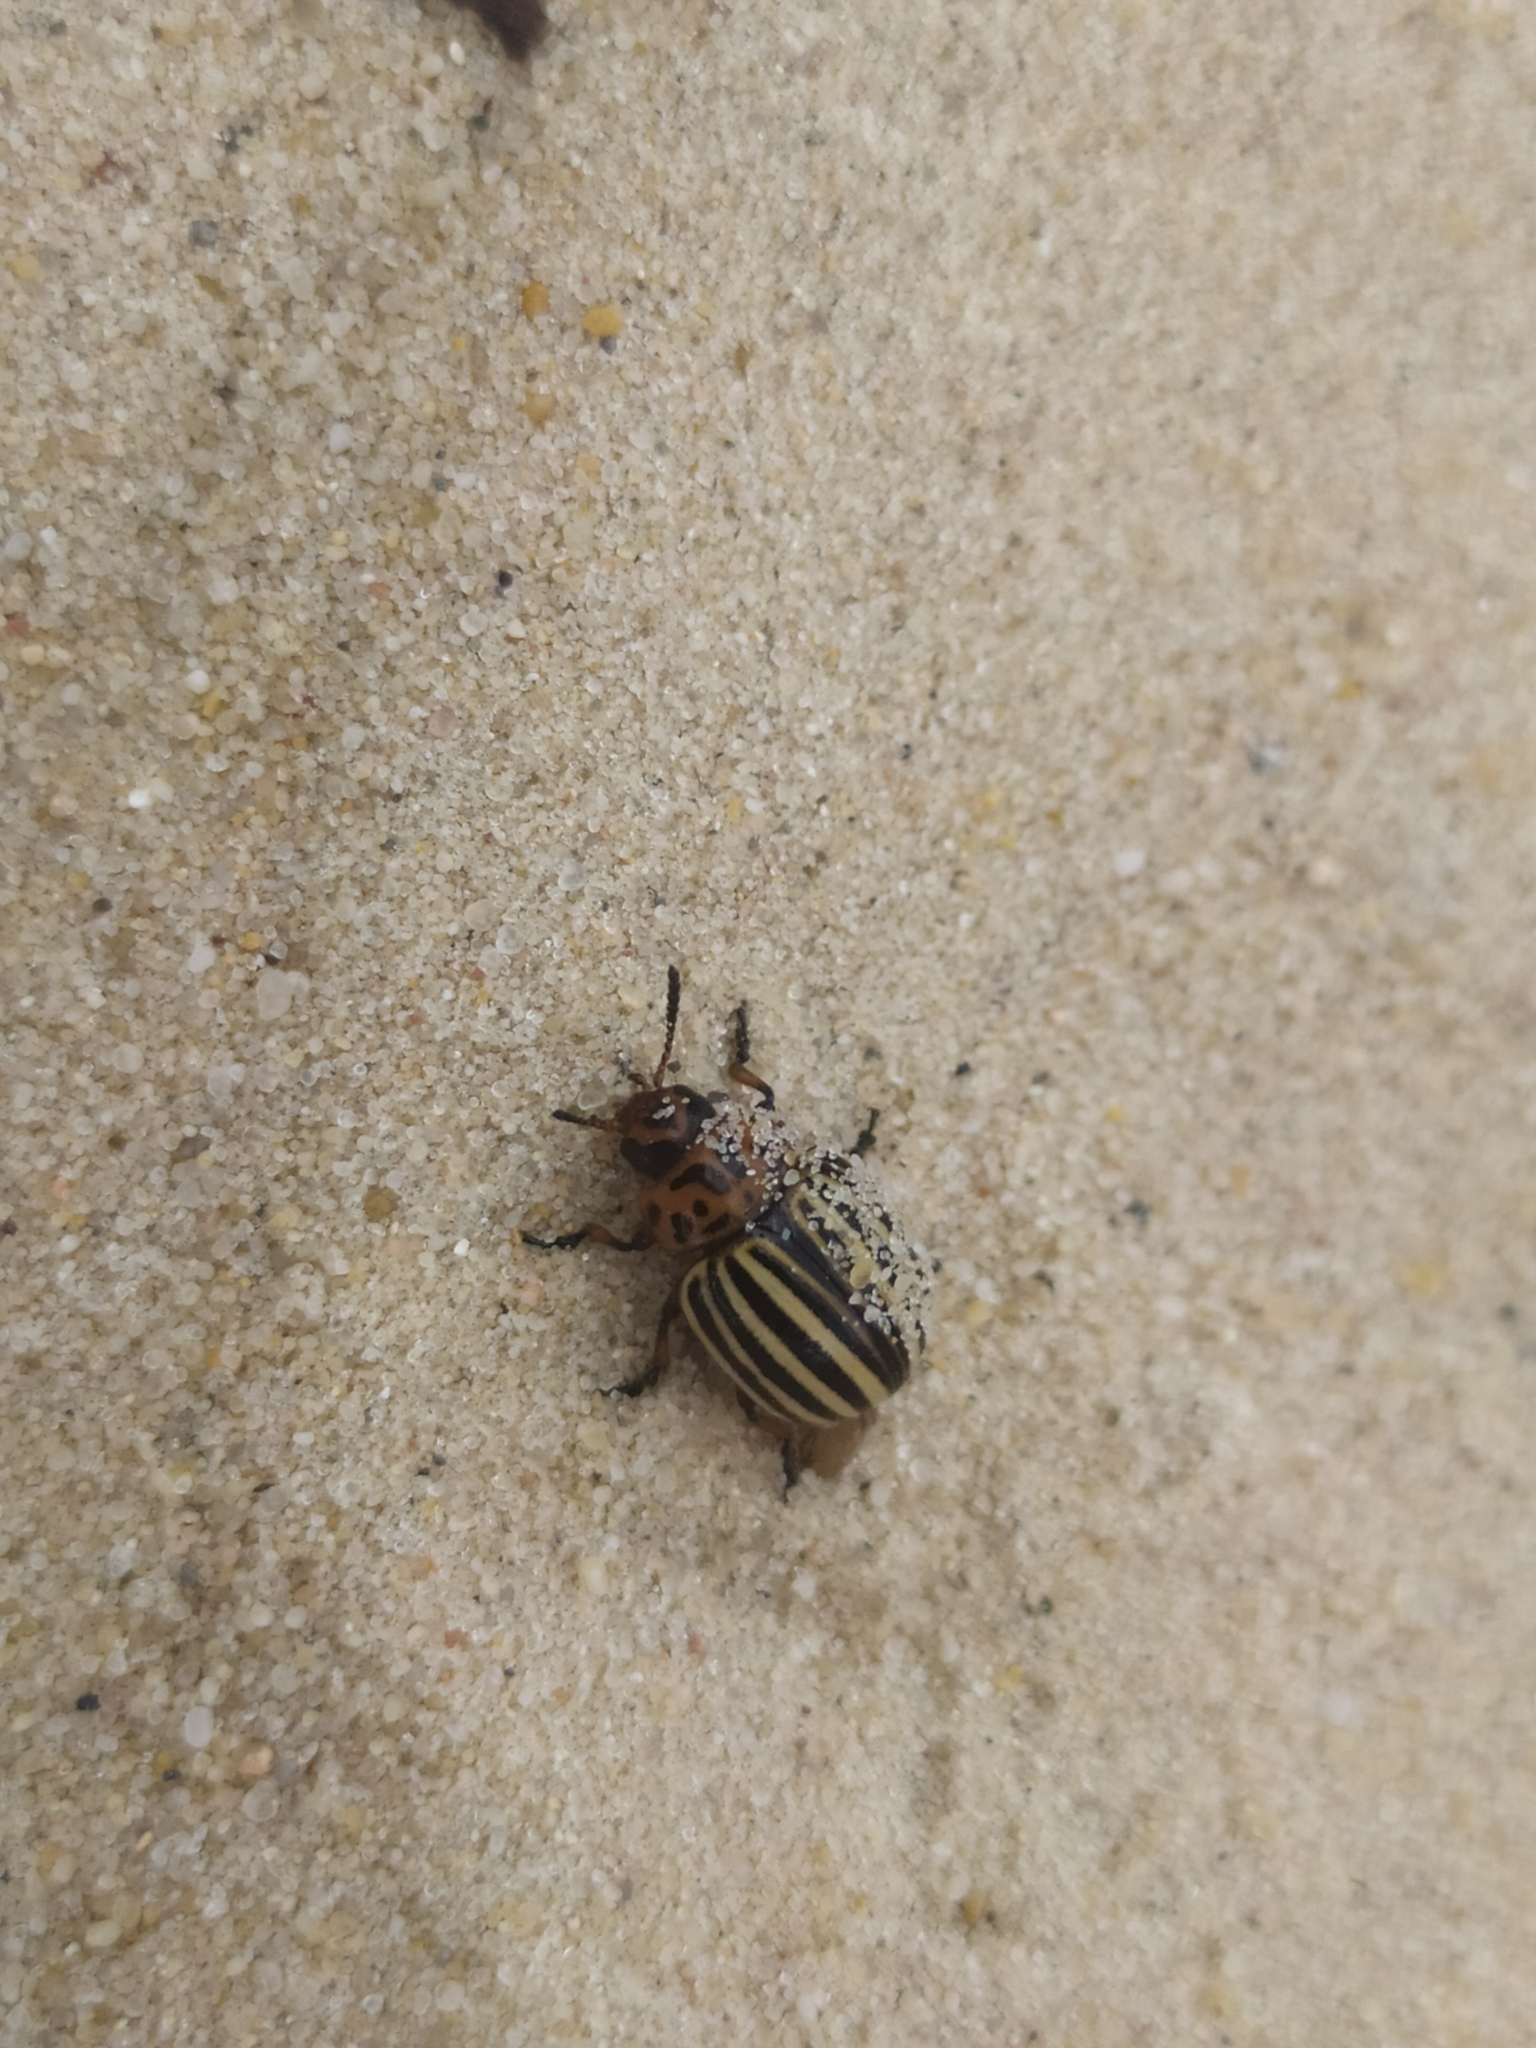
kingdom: Animalia
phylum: Arthropoda
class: Insecta
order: Coleoptera
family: Chrysomelidae
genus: Leptinotarsa
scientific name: Leptinotarsa decemlineata
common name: Colorado potato beetle
